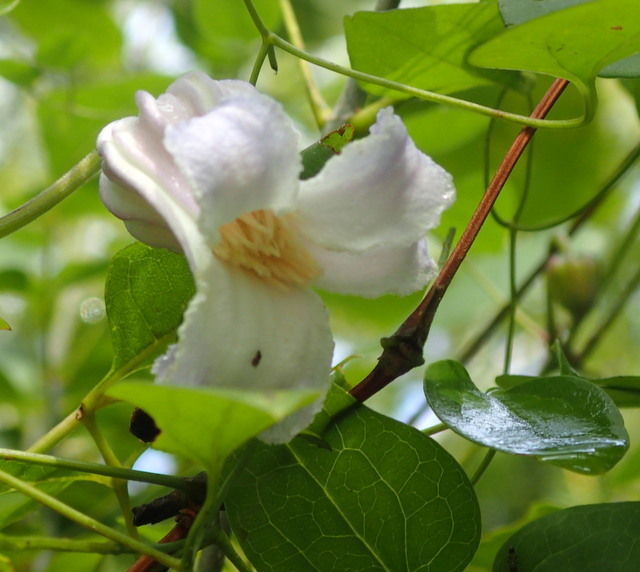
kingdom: Plantae
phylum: Tracheophyta
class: Magnoliopsida
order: Ranunculales
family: Ranunculaceae
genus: Clematis
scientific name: Clematis crispa
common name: Curly clematis
